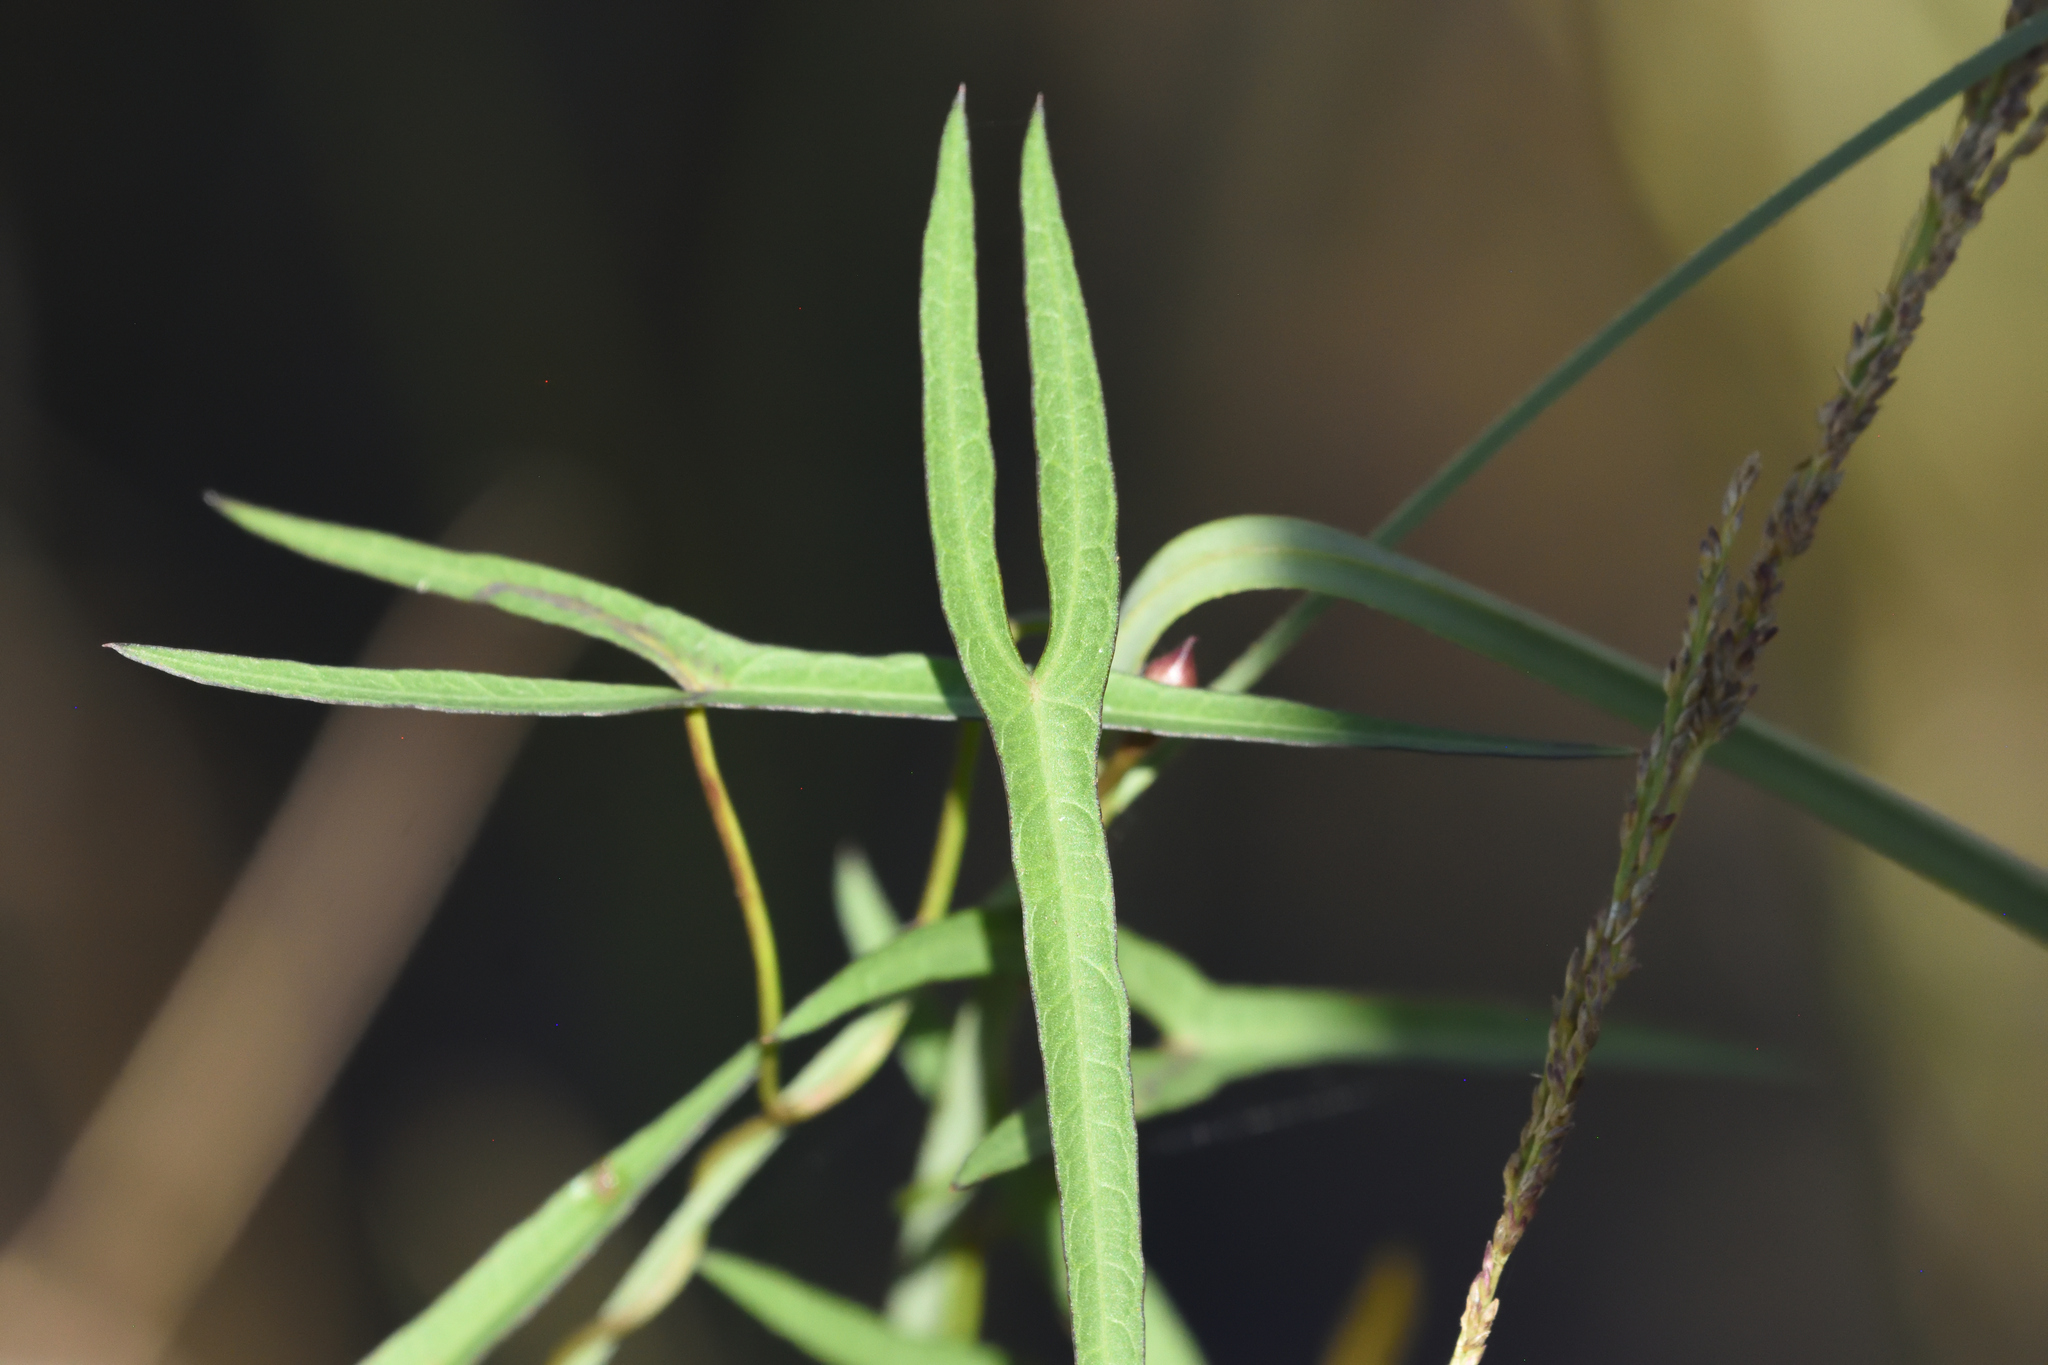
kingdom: Plantae
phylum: Tracheophyta
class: Magnoliopsida
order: Solanales
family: Convolvulaceae
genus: Ipomoea
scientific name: Ipomoea sagittata
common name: Saltmarsh morning glory
